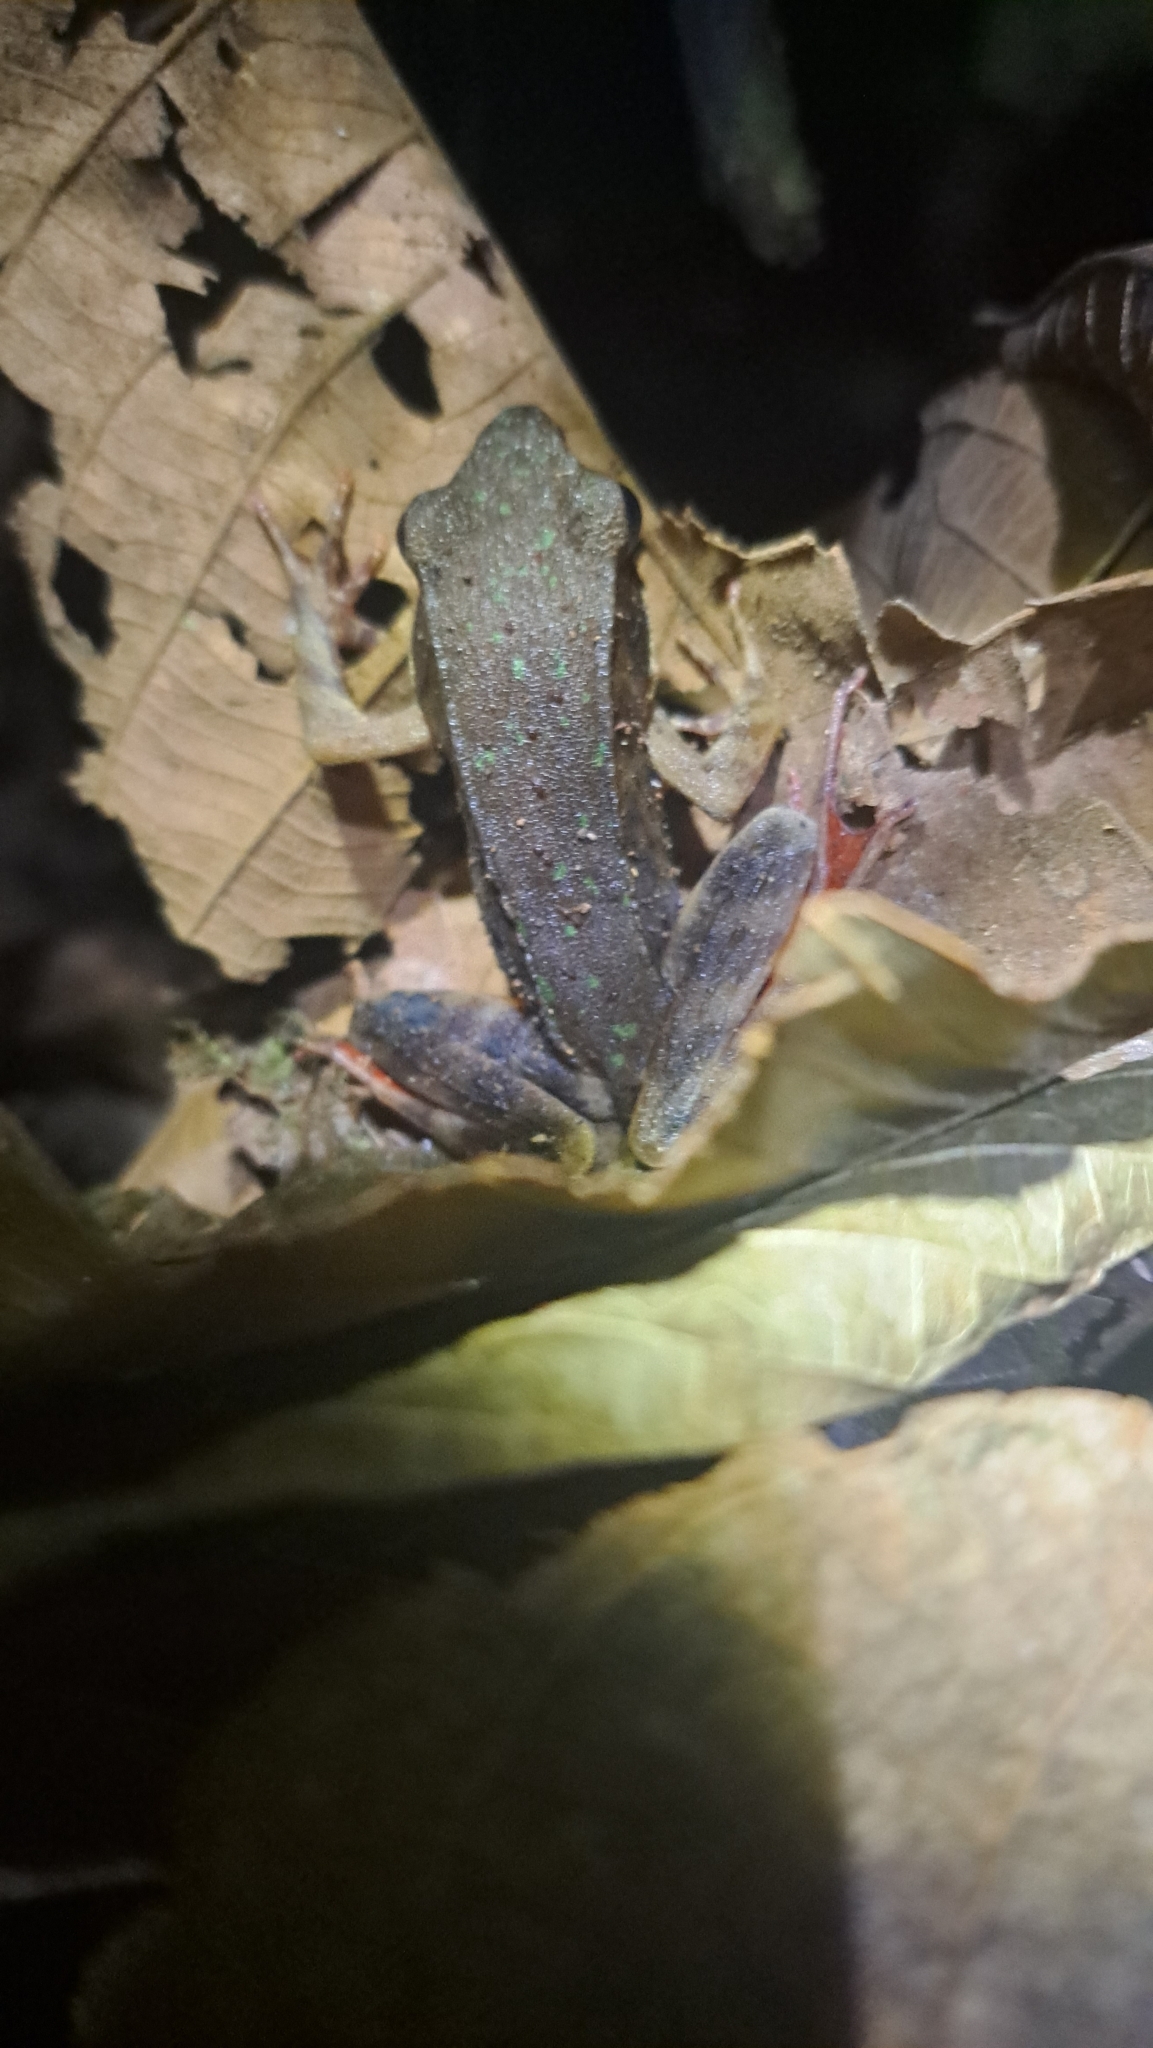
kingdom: Animalia
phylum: Chordata
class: Amphibia
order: Anura
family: Ranidae
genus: Lithobates
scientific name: Lithobates warszewitschii
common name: Warszewitsch's frog
